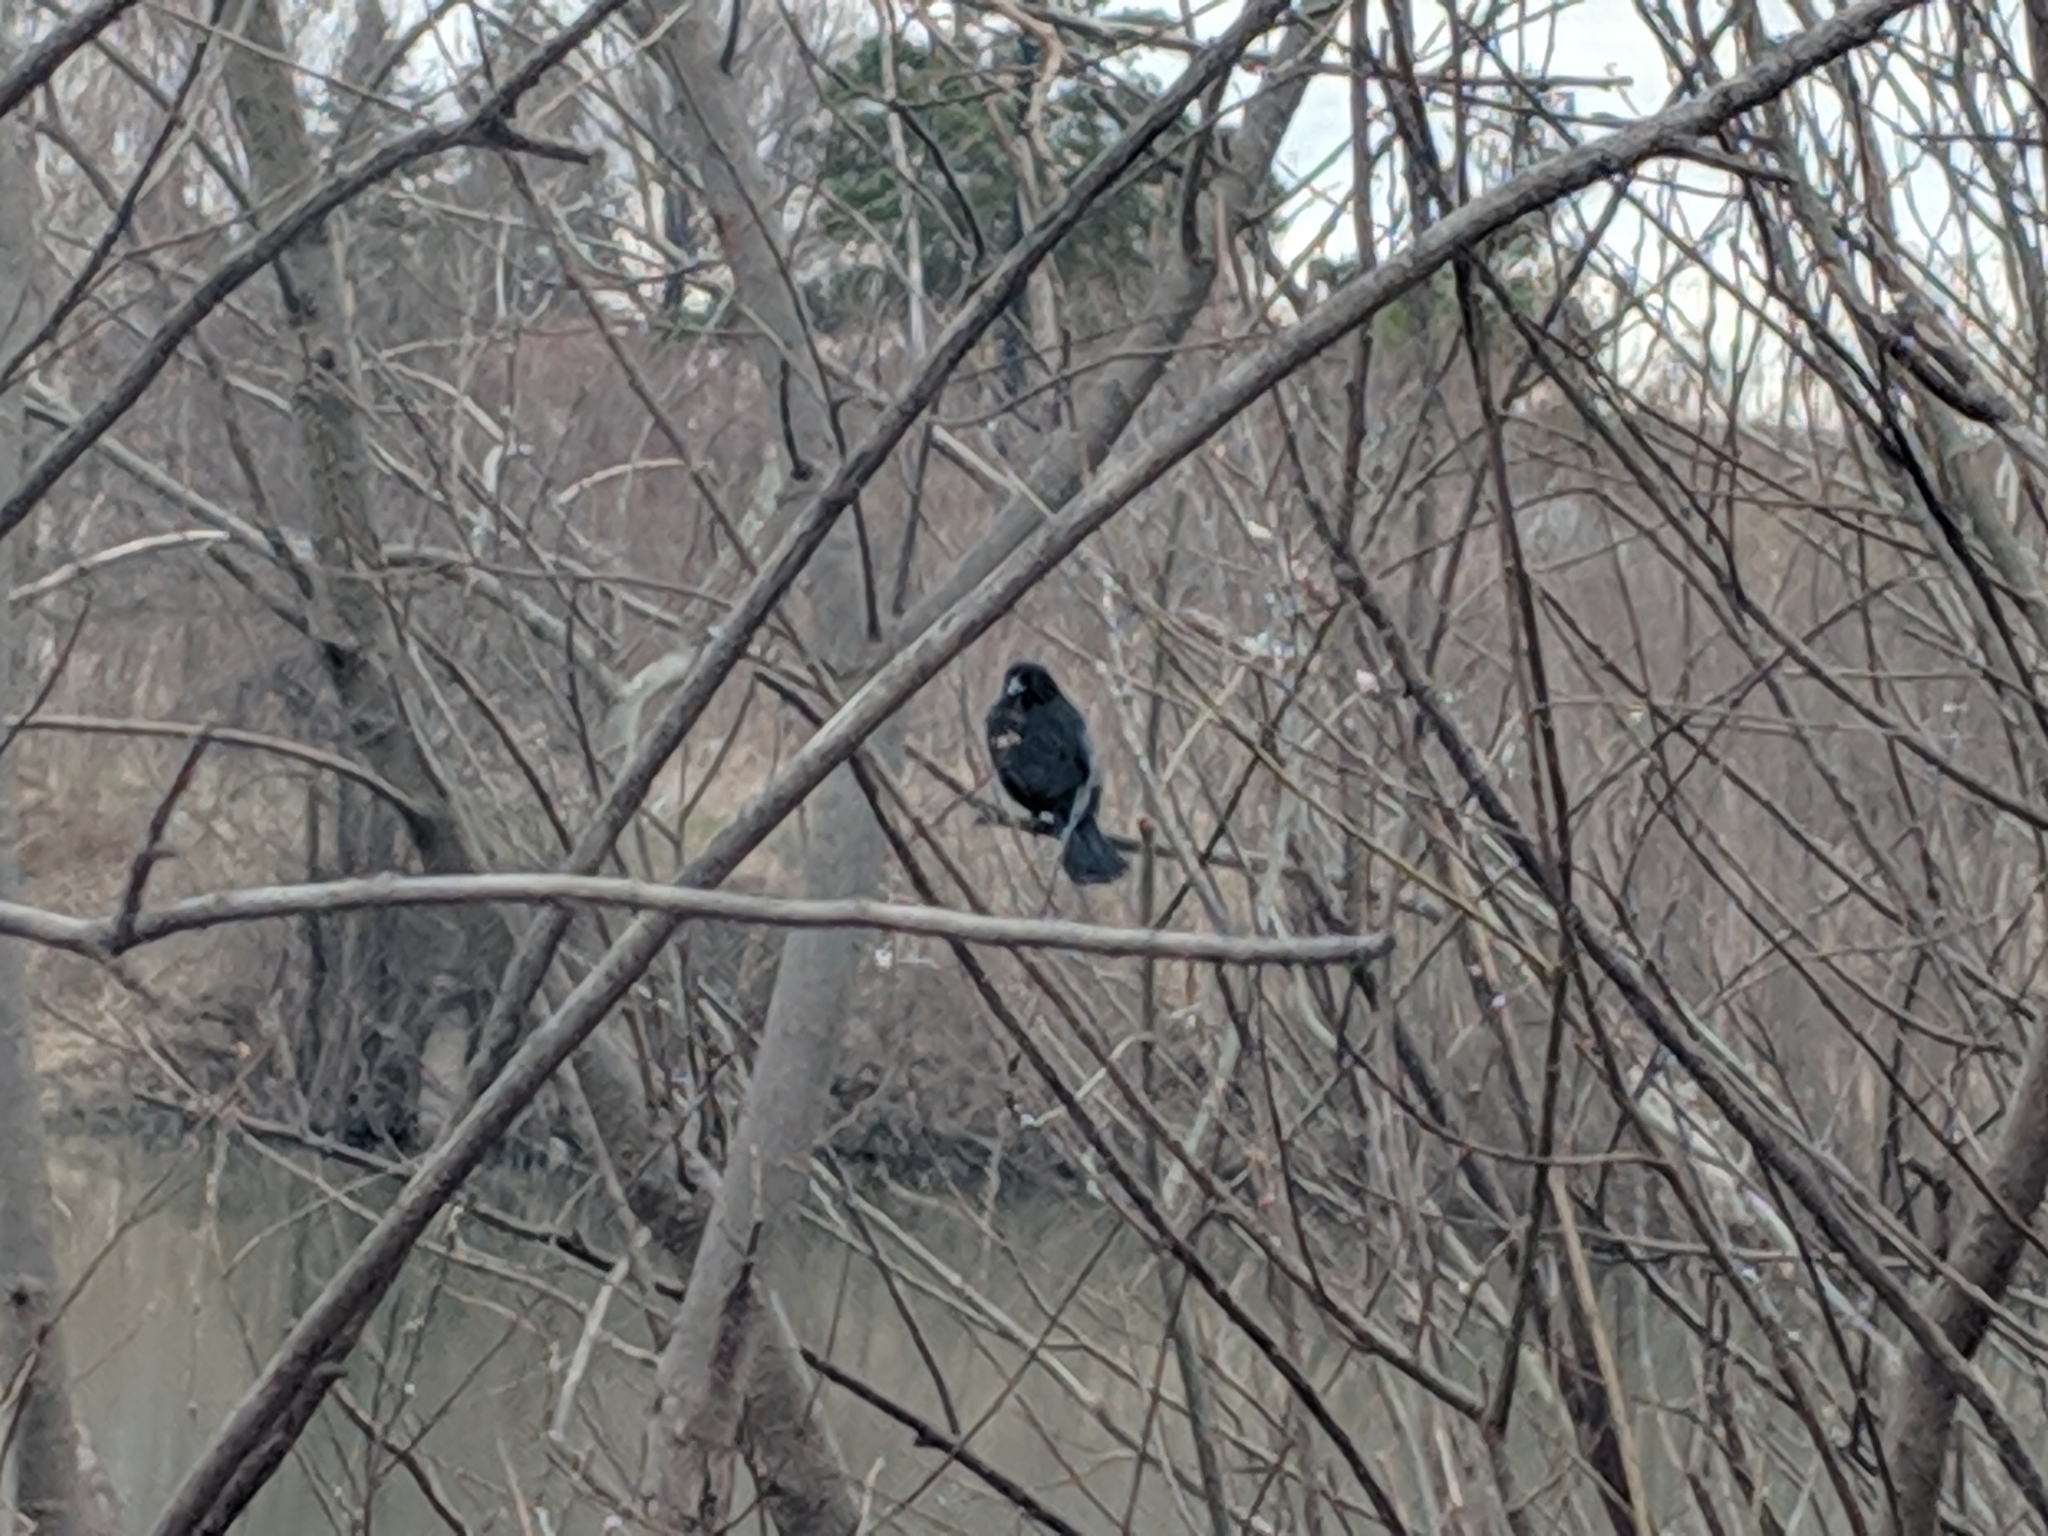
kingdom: Animalia
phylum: Chordata
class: Aves
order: Passeriformes
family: Icteridae
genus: Agelaius
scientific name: Agelaius phoeniceus
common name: Red-winged blackbird
